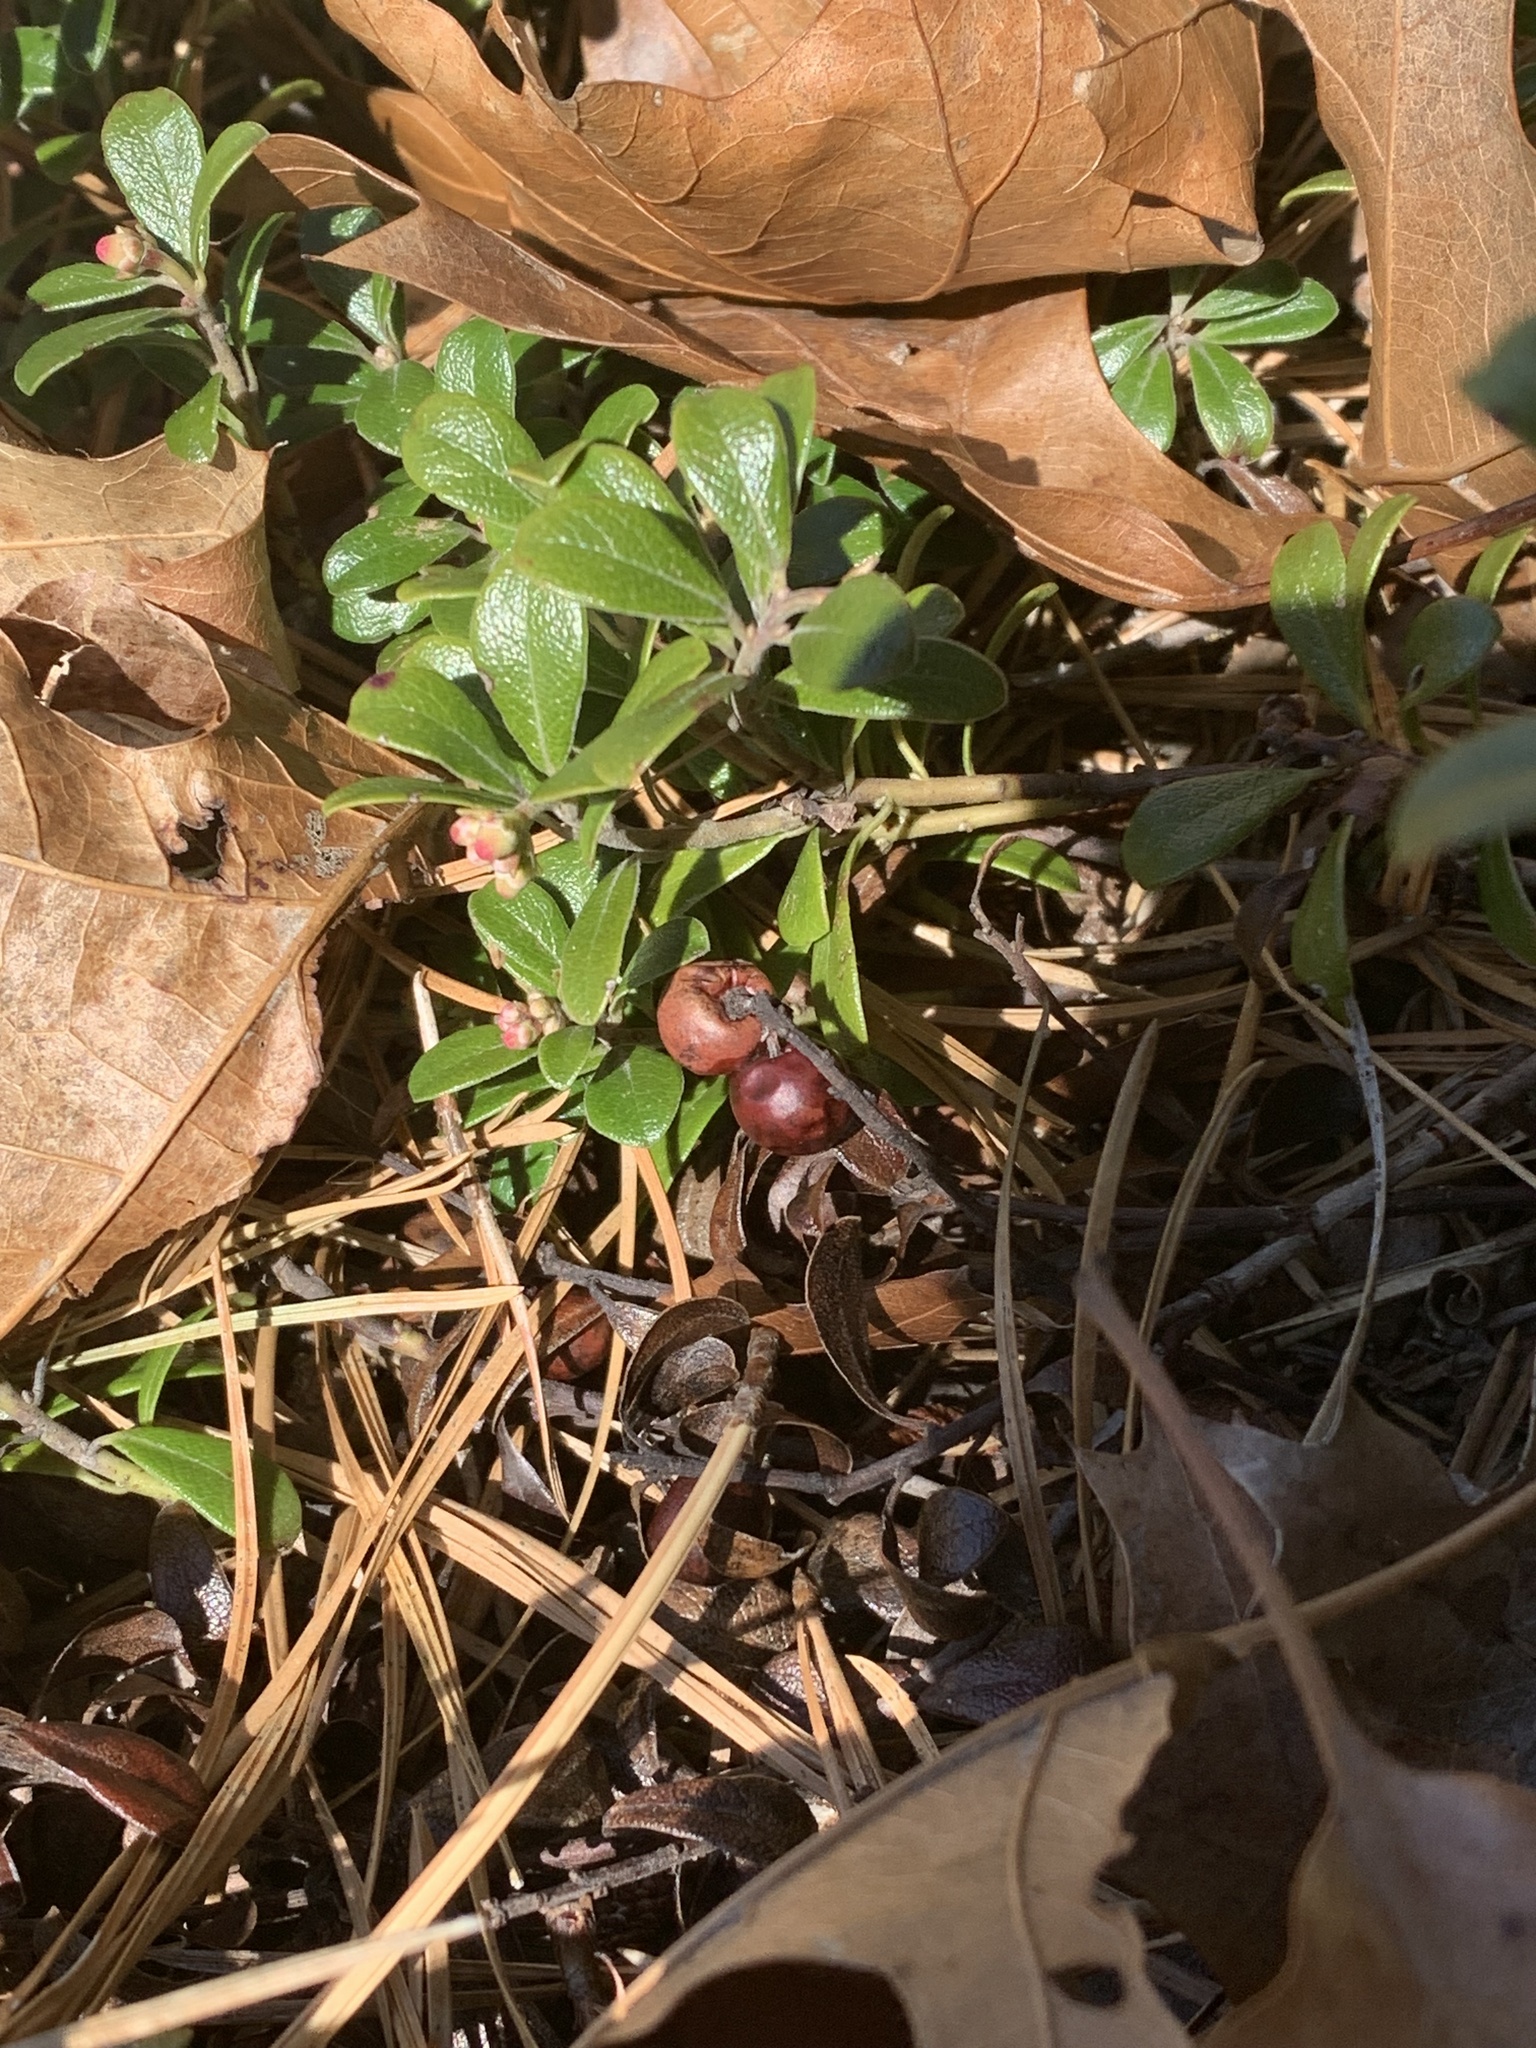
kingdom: Plantae
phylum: Tracheophyta
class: Magnoliopsida
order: Ericales
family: Ericaceae
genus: Arctostaphylos
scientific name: Arctostaphylos uva-ursi
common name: Bearberry
